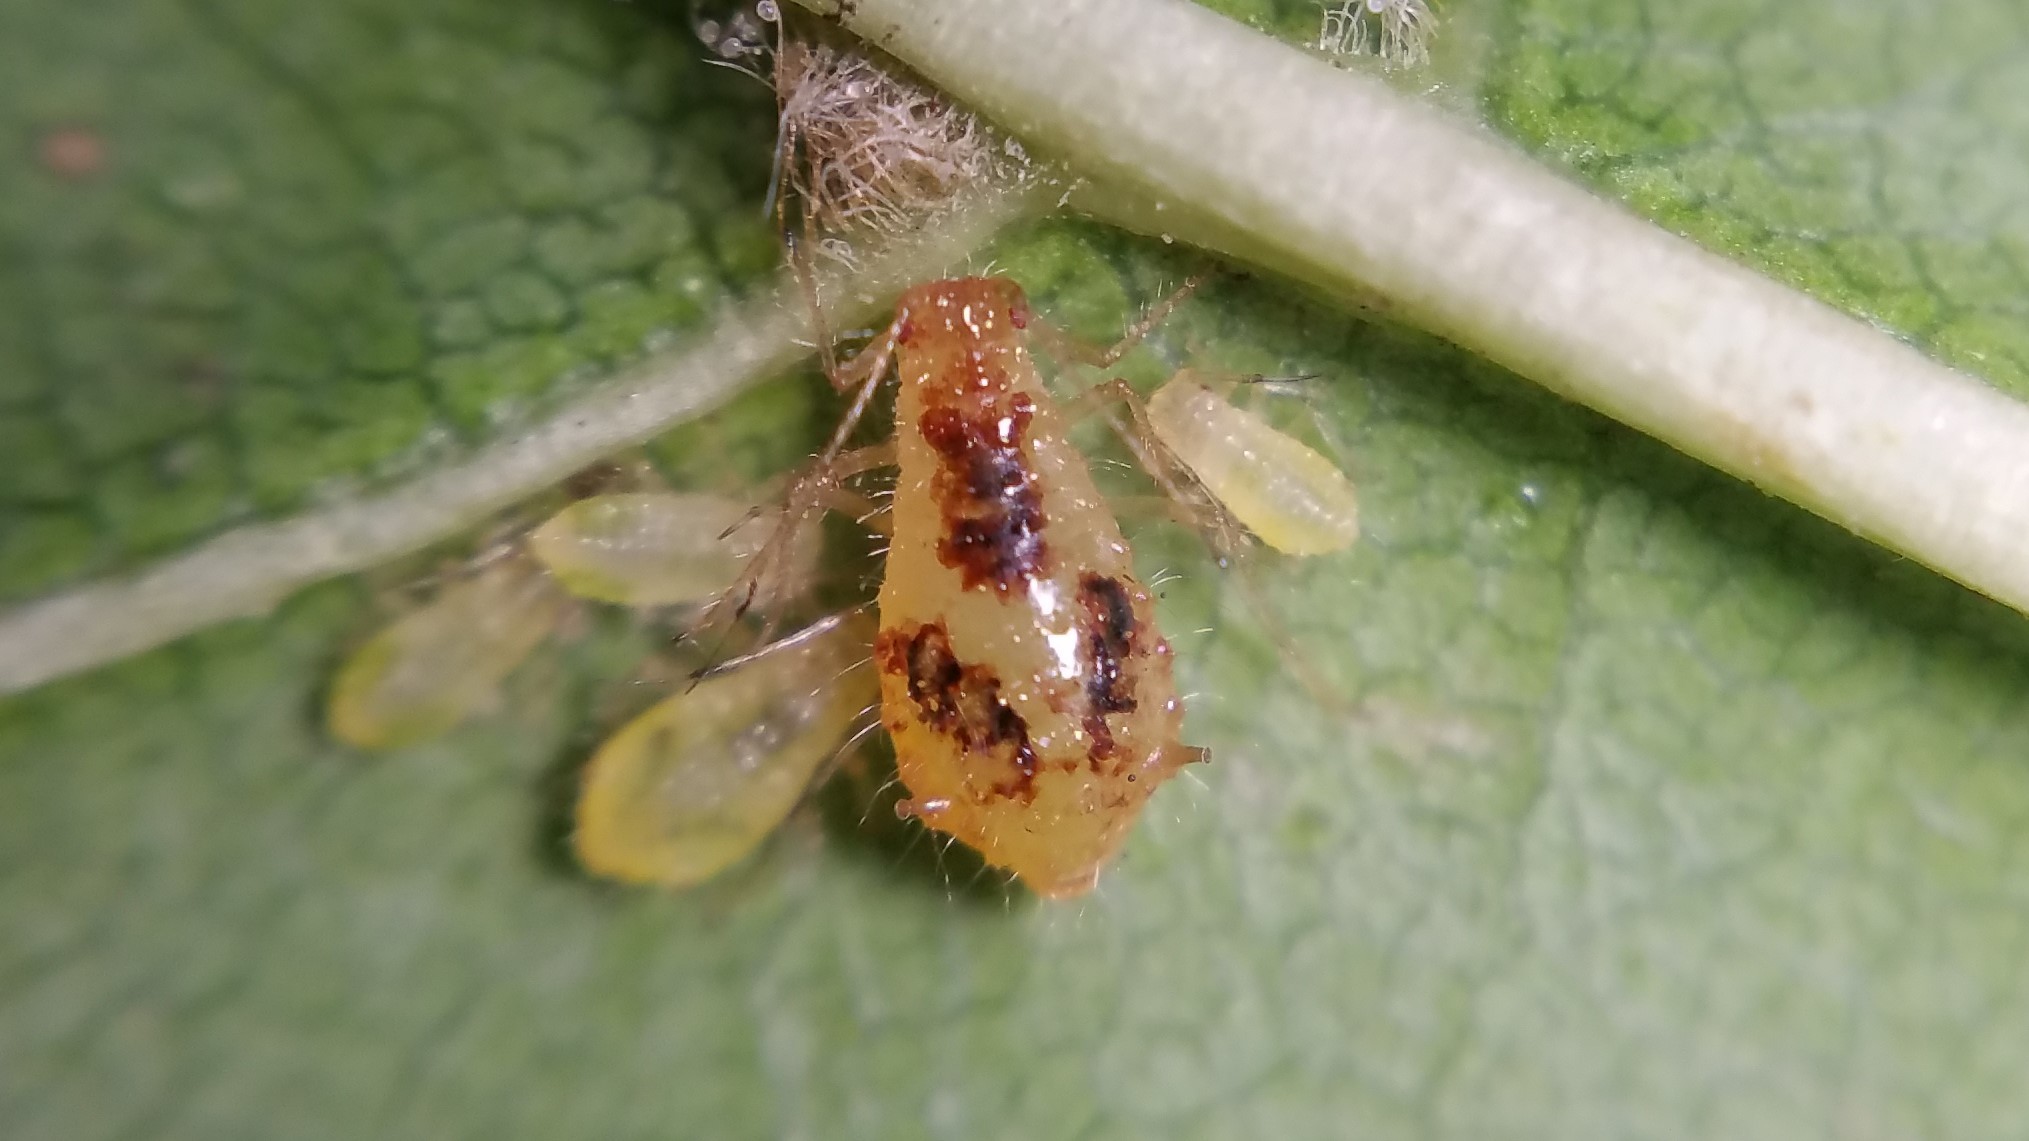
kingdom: Animalia
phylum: Arthropoda
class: Insecta
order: Hemiptera
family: Aphididae
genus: Periphyllus
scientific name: Periphyllus lyropictus
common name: Norway maple aphid
